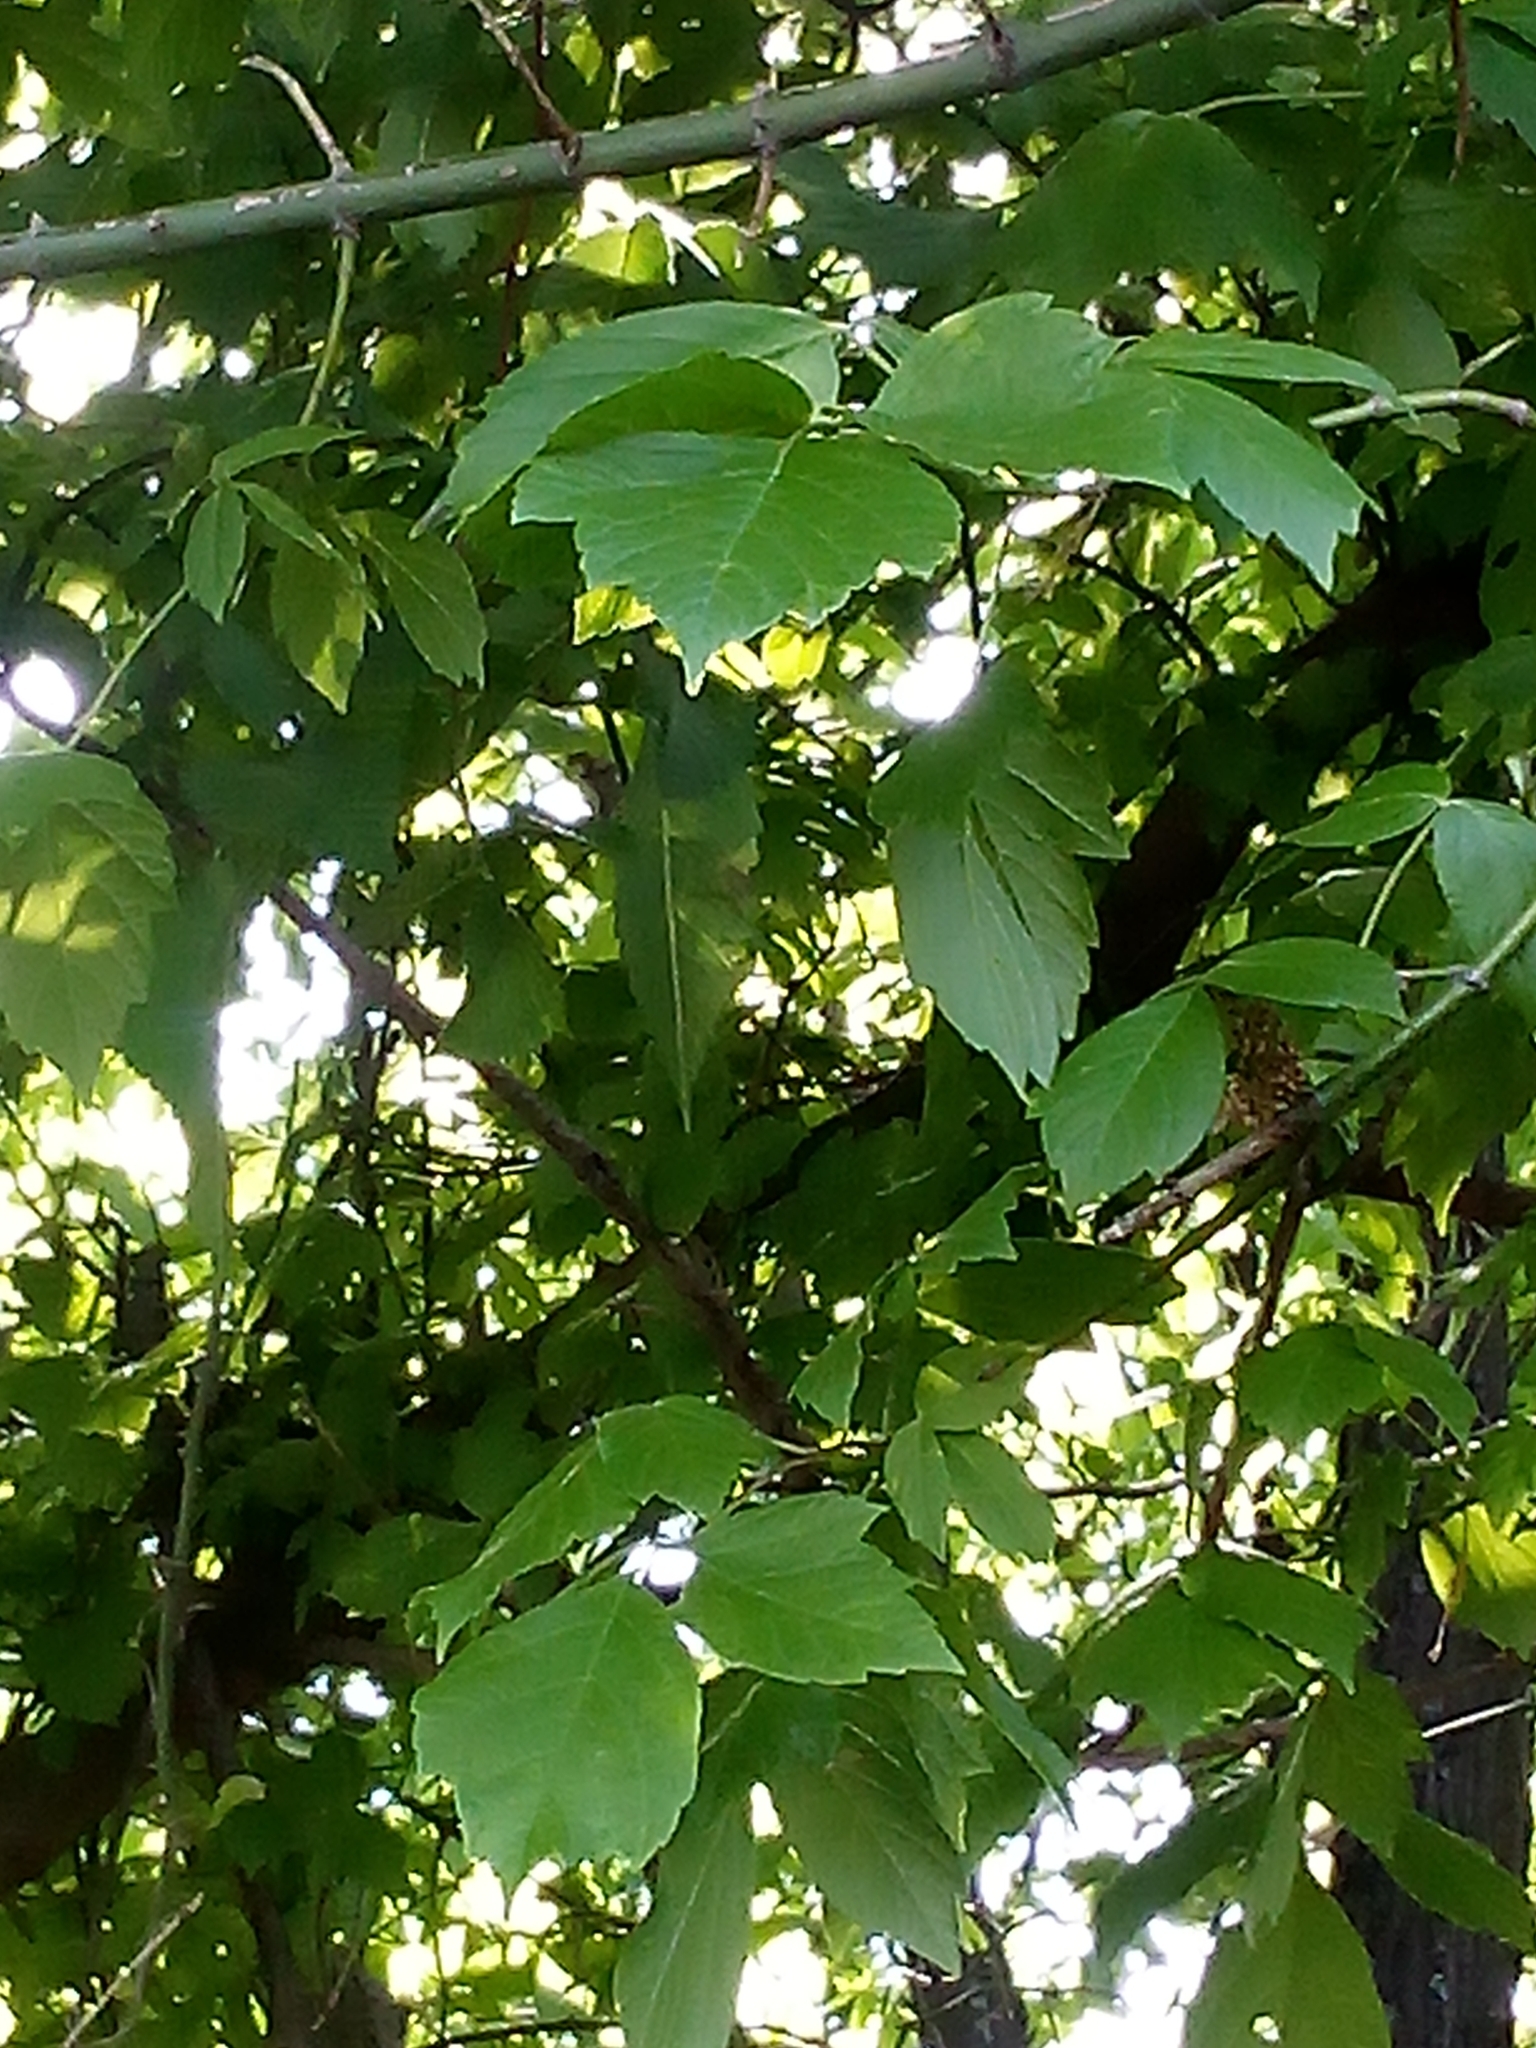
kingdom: Plantae
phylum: Tracheophyta
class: Magnoliopsida
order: Sapindales
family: Anacardiaceae
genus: Toxicodendron
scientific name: Toxicodendron radicans
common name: Poison ivy
